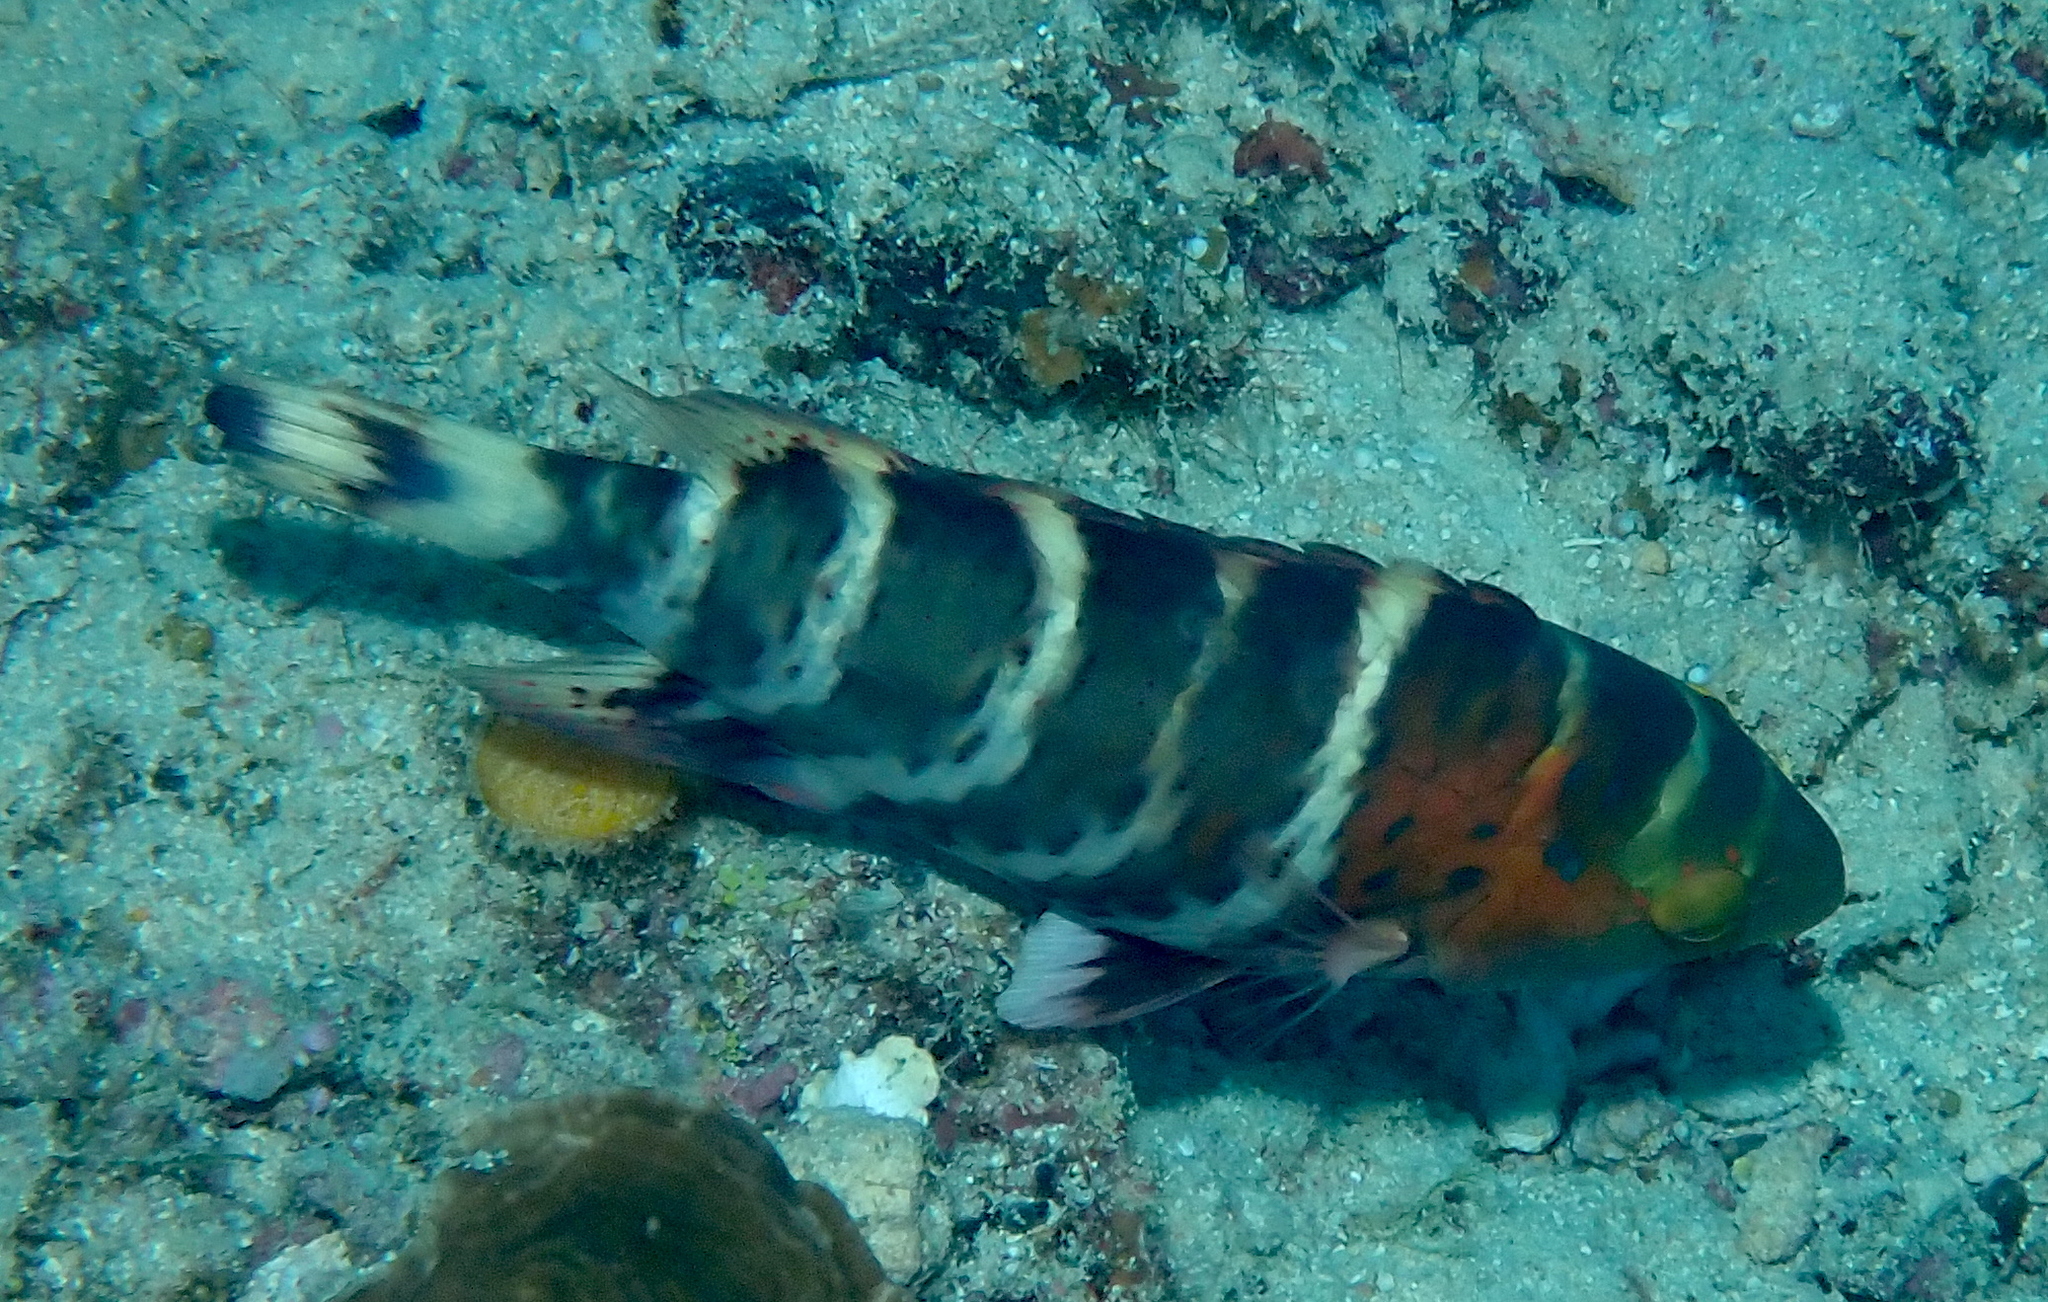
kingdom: Animalia
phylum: Chordata
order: Perciformes
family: Labridae
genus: Cheilinus
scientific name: Cheilinus fasciatus
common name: Red-breasted wrasse
